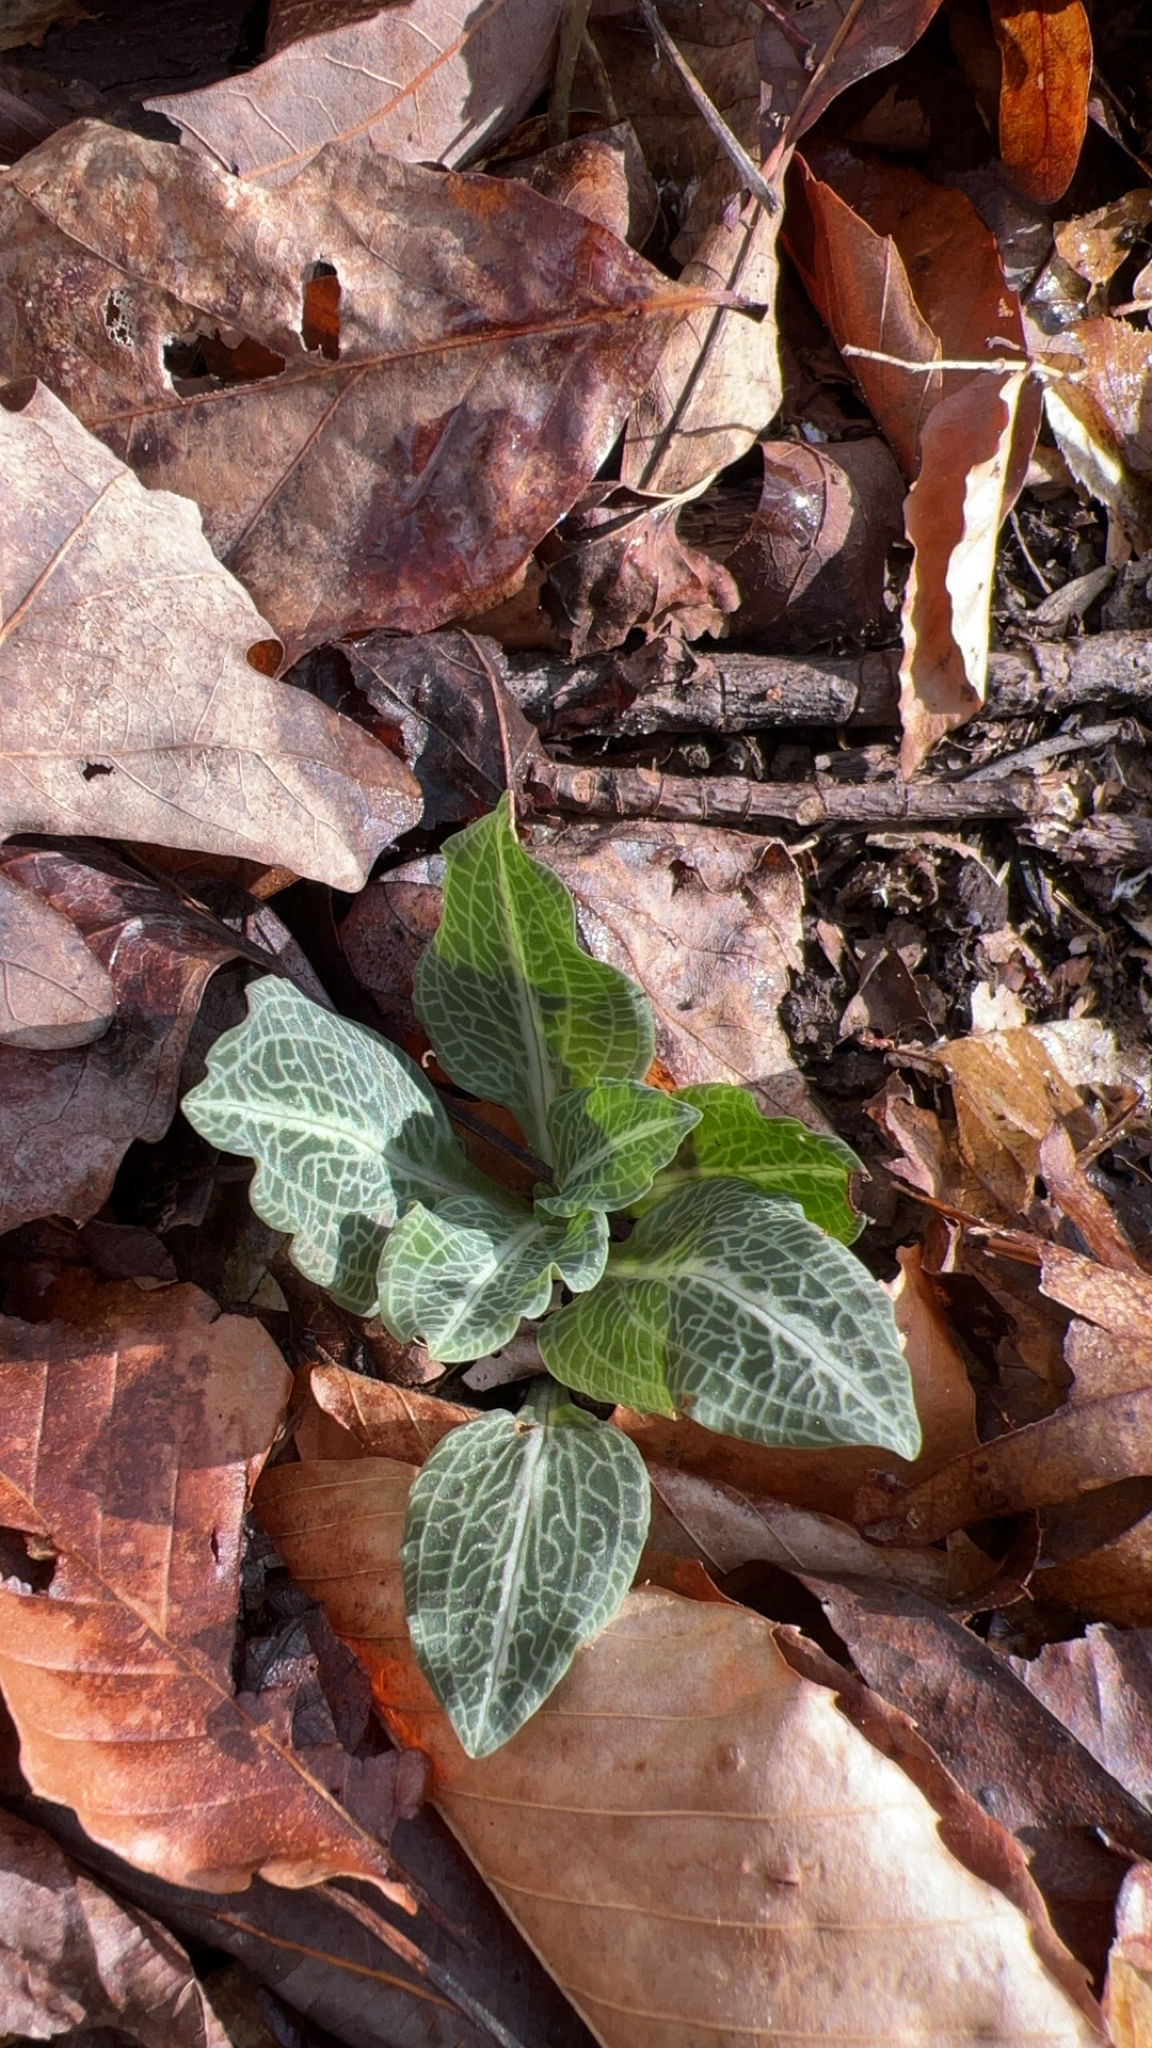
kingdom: Plantae
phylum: Tracheophyta
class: Liliopsida
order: Asparagales
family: Orchidaceae
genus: Goodyera
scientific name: Goodyera pubescens
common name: Downy rattlesnake-plantain
